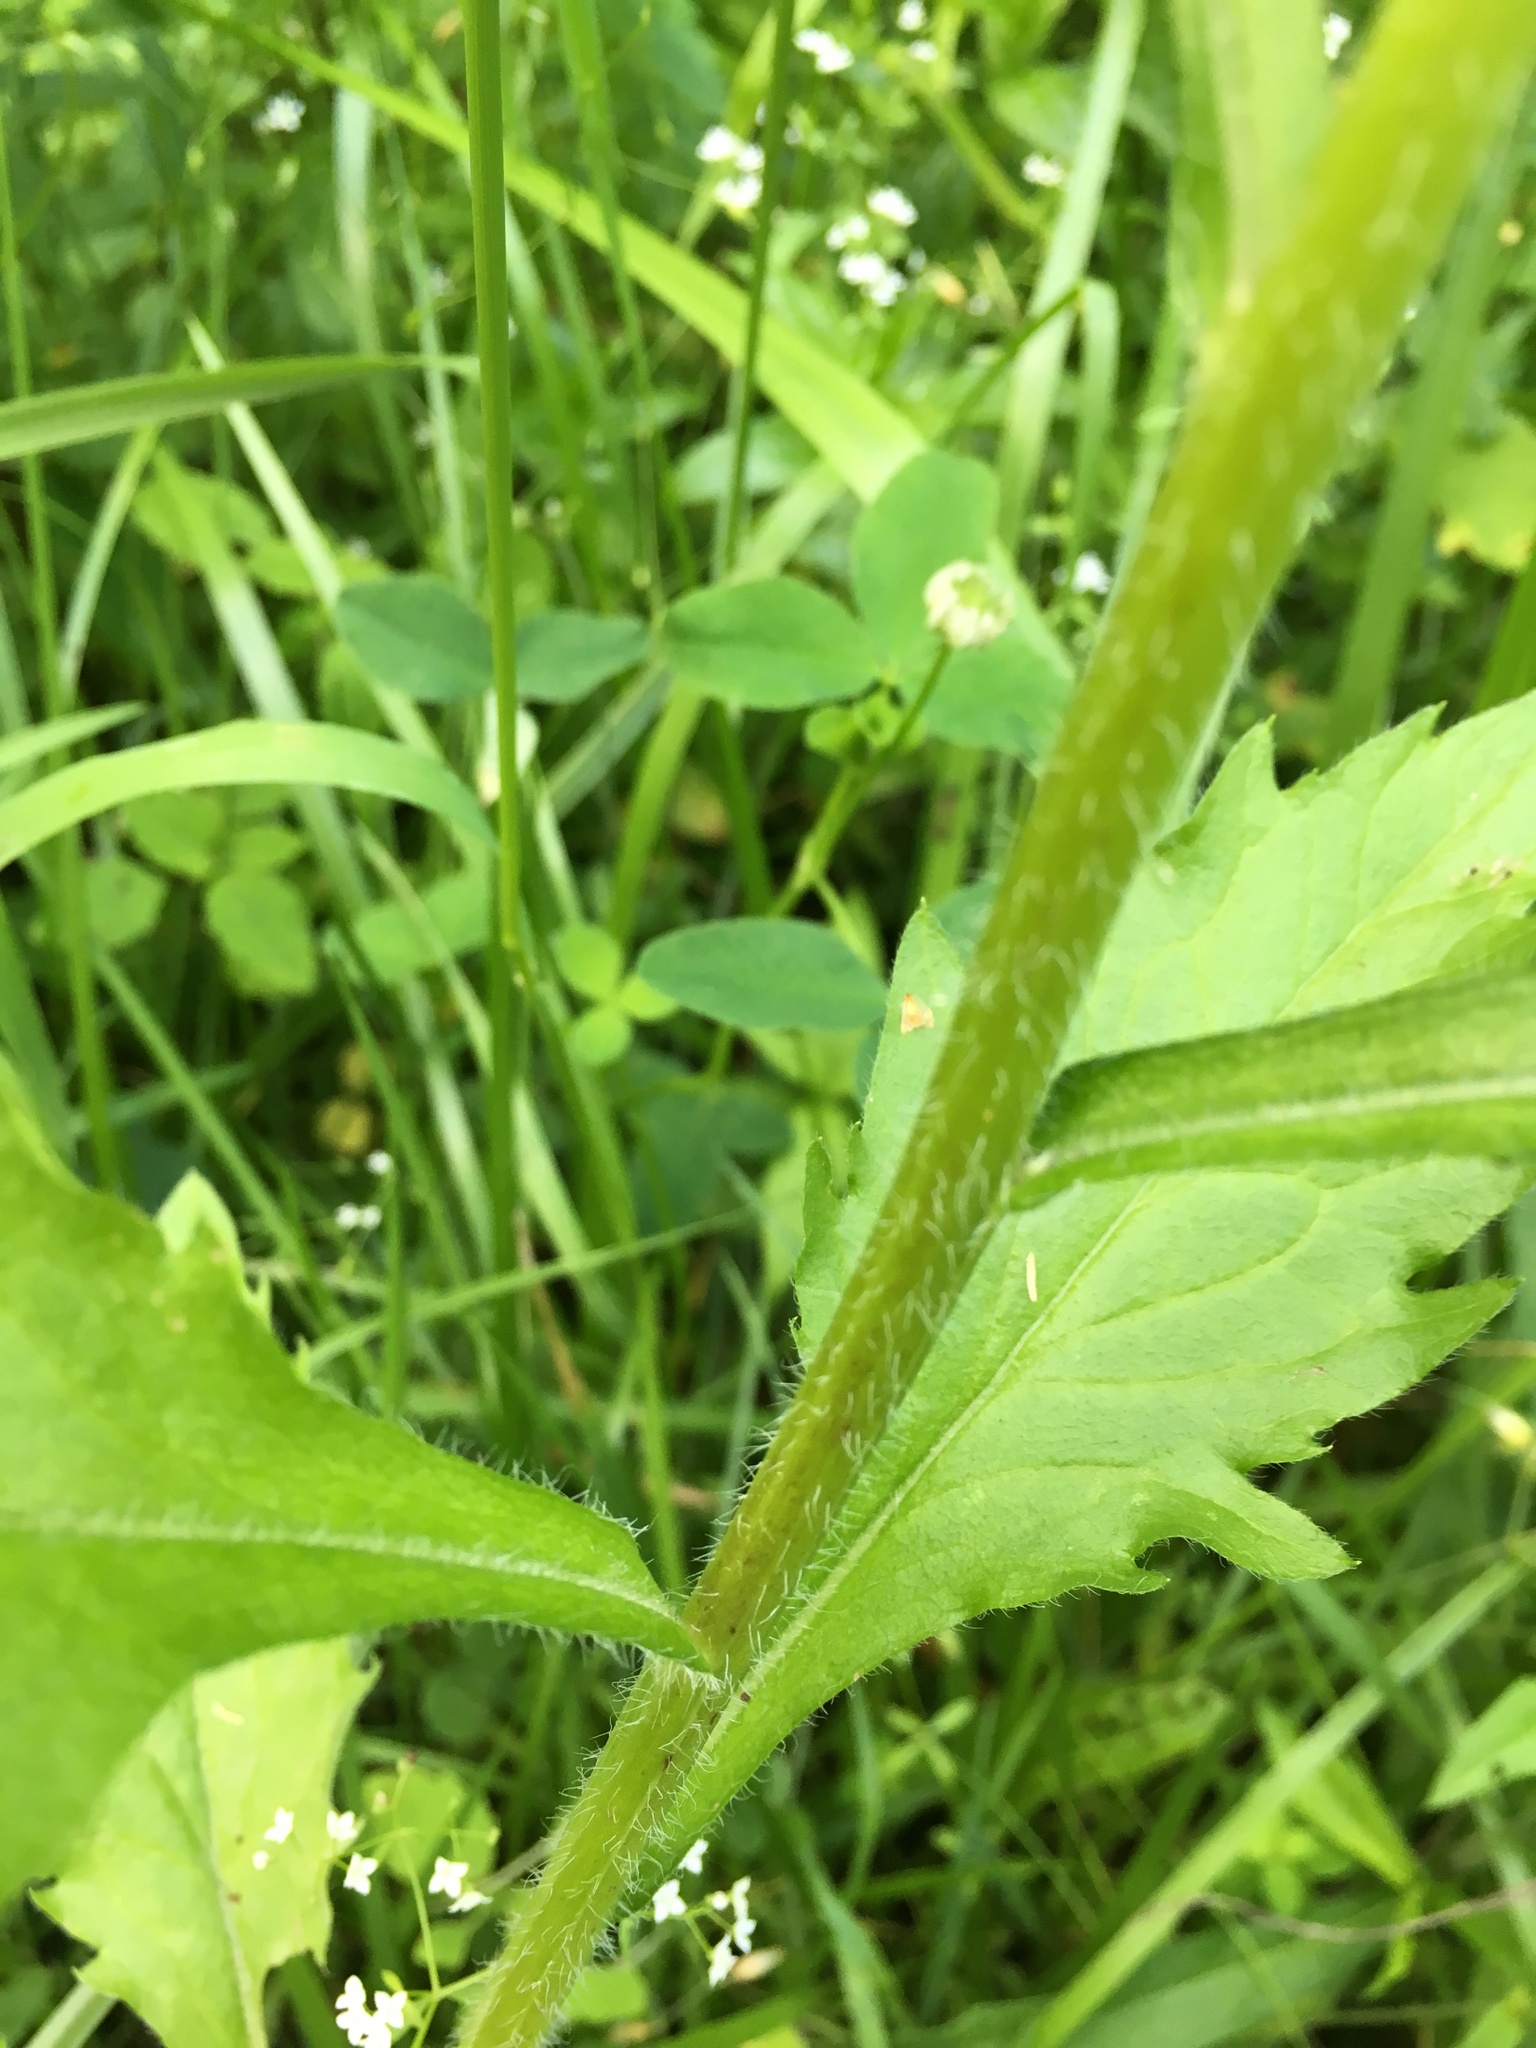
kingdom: Plantae
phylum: Tracheophyta
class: Magnoliopsida
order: Asterales
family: Asteraceae
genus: Erigeron
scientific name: Erigeron annuus
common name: Tall fleabane
